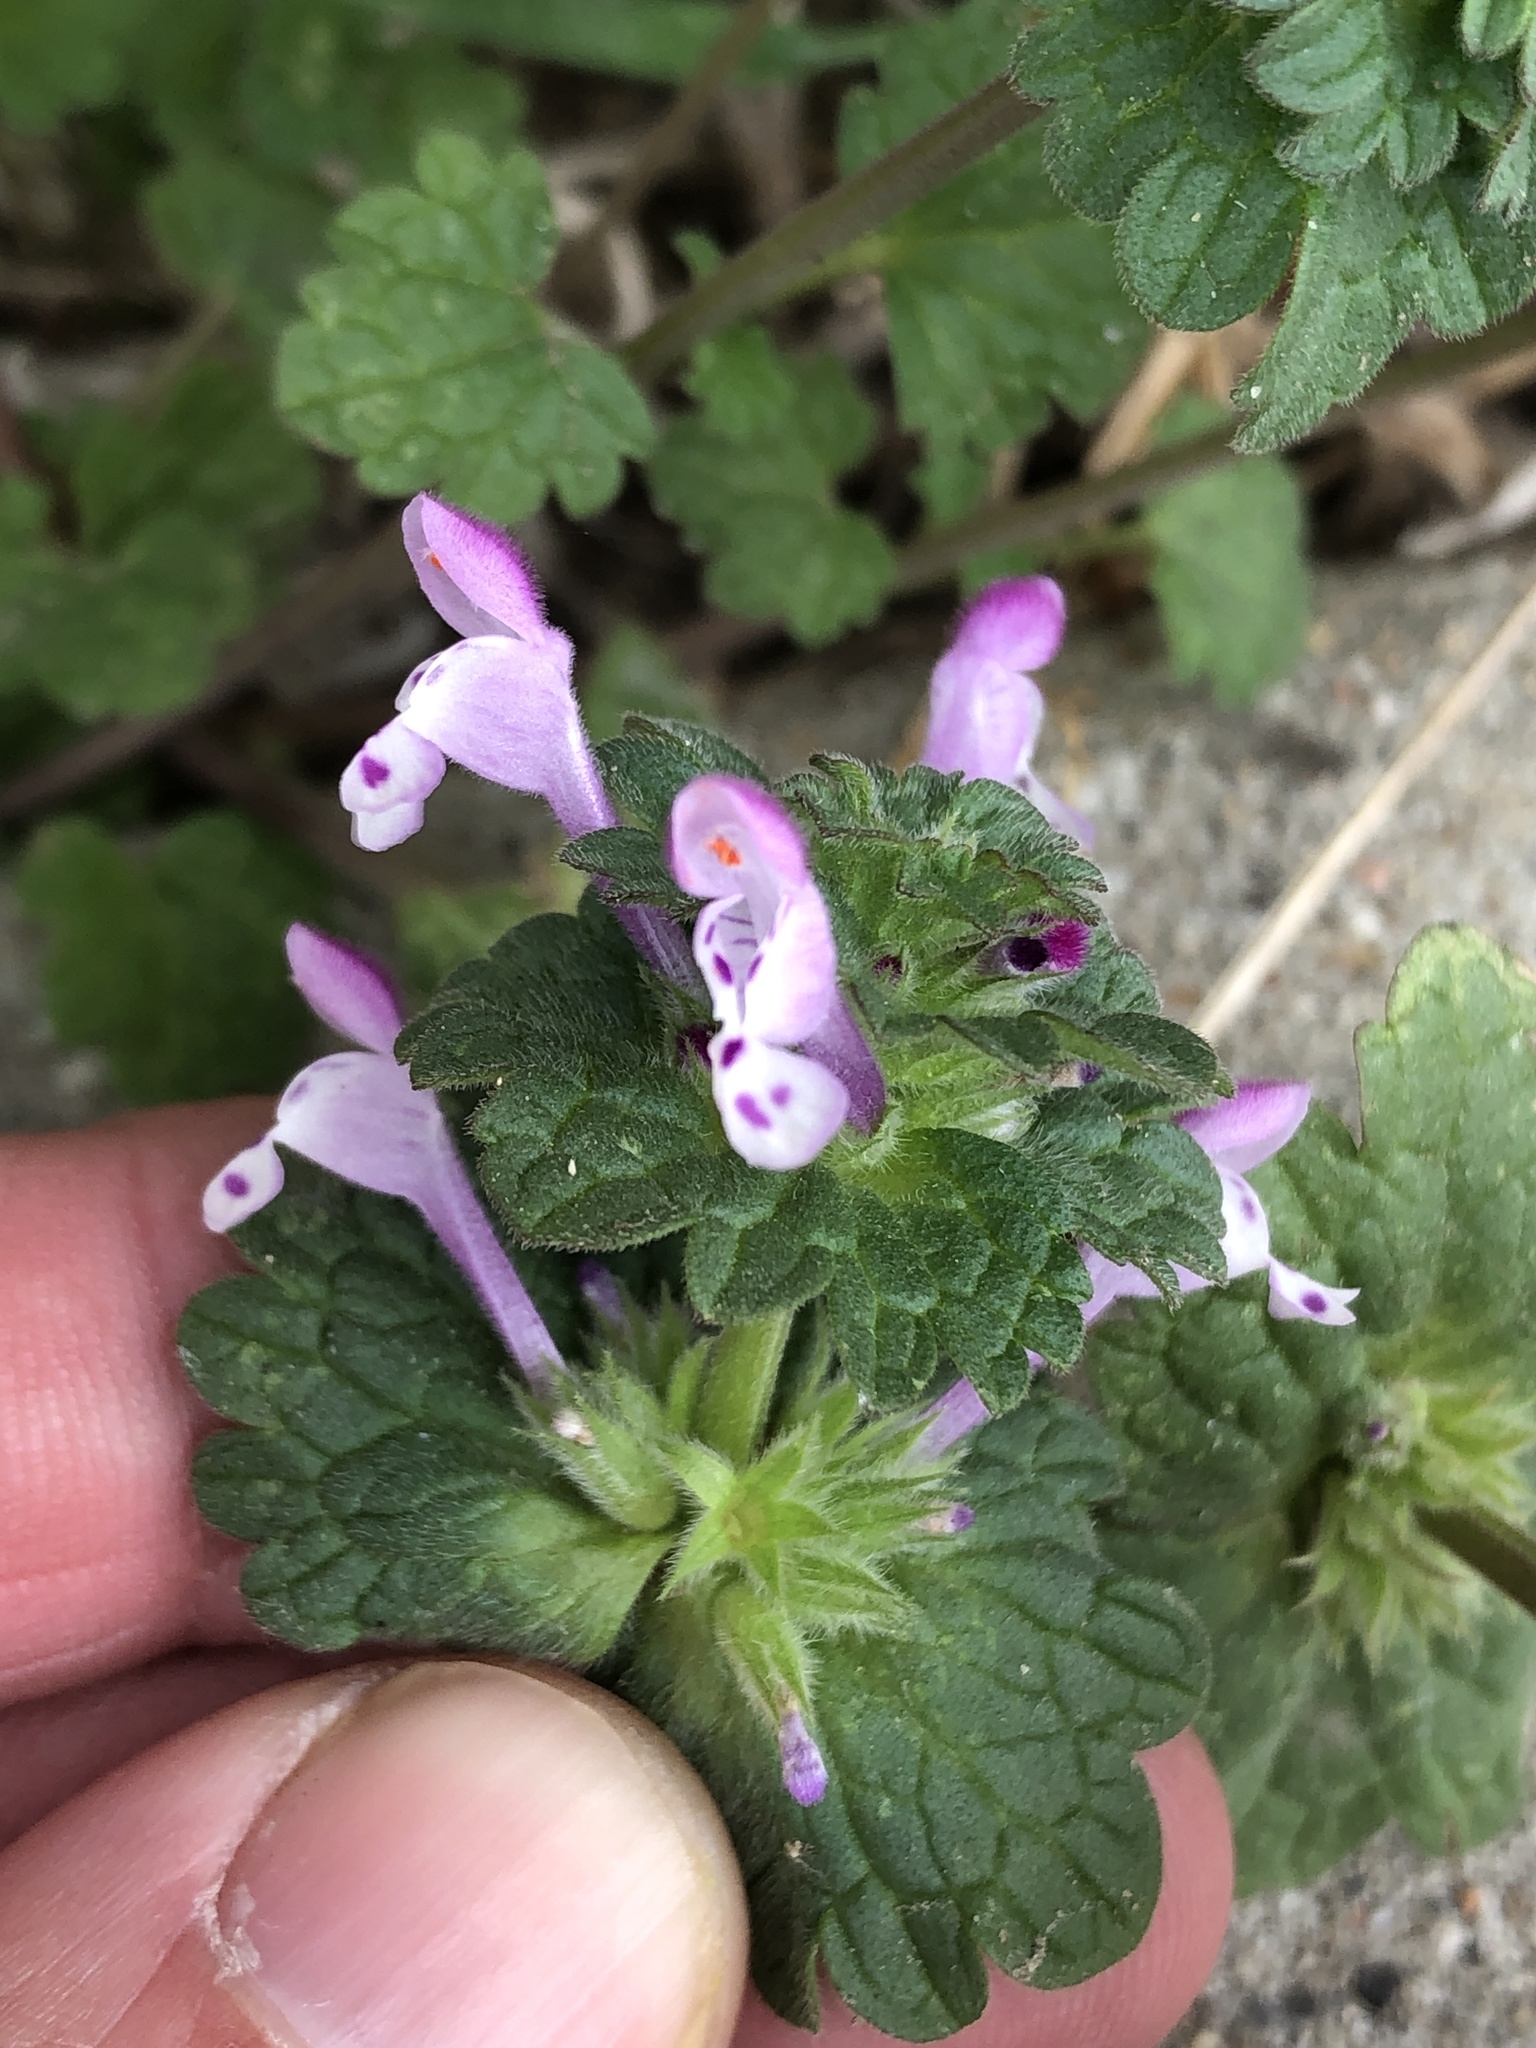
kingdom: Plantae
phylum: Tracheophyta
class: Magnoliopsida
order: Lamiales
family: Lamiaceae
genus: Lamium
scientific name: Lamium amplexicaule
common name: Henbit dead-nettle
